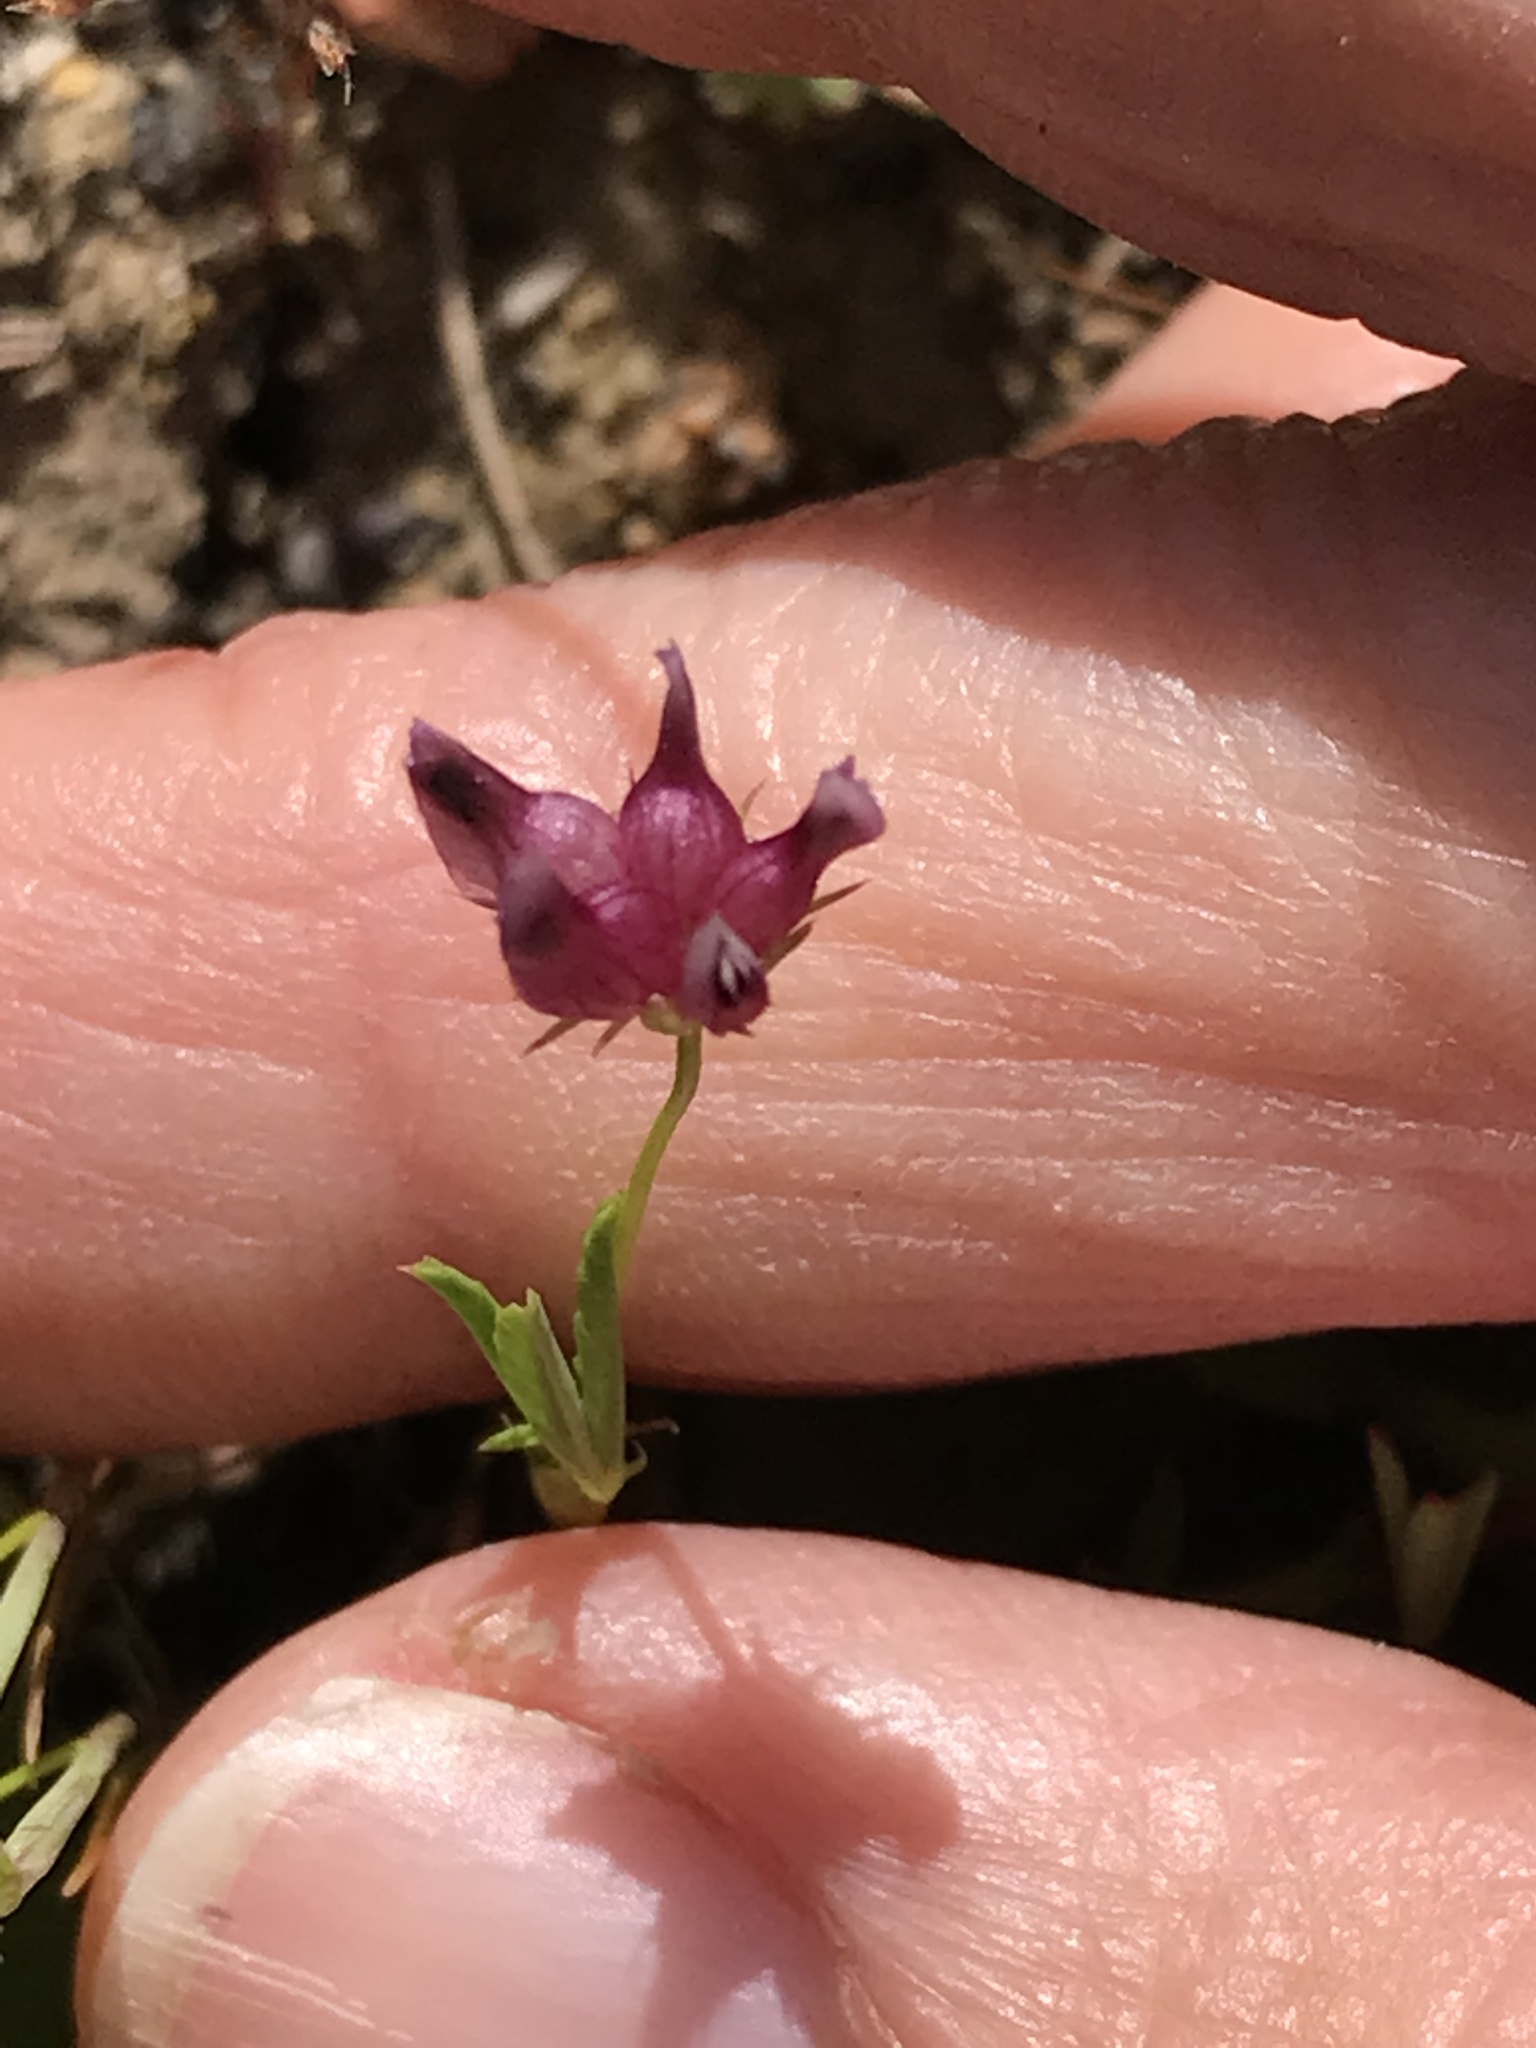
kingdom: Plantae
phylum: Tracheophyta
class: Magnoliopsida
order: Fabales
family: Fabaceae
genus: Trifolium
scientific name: Trifolium depauperatum
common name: Poverty clover
